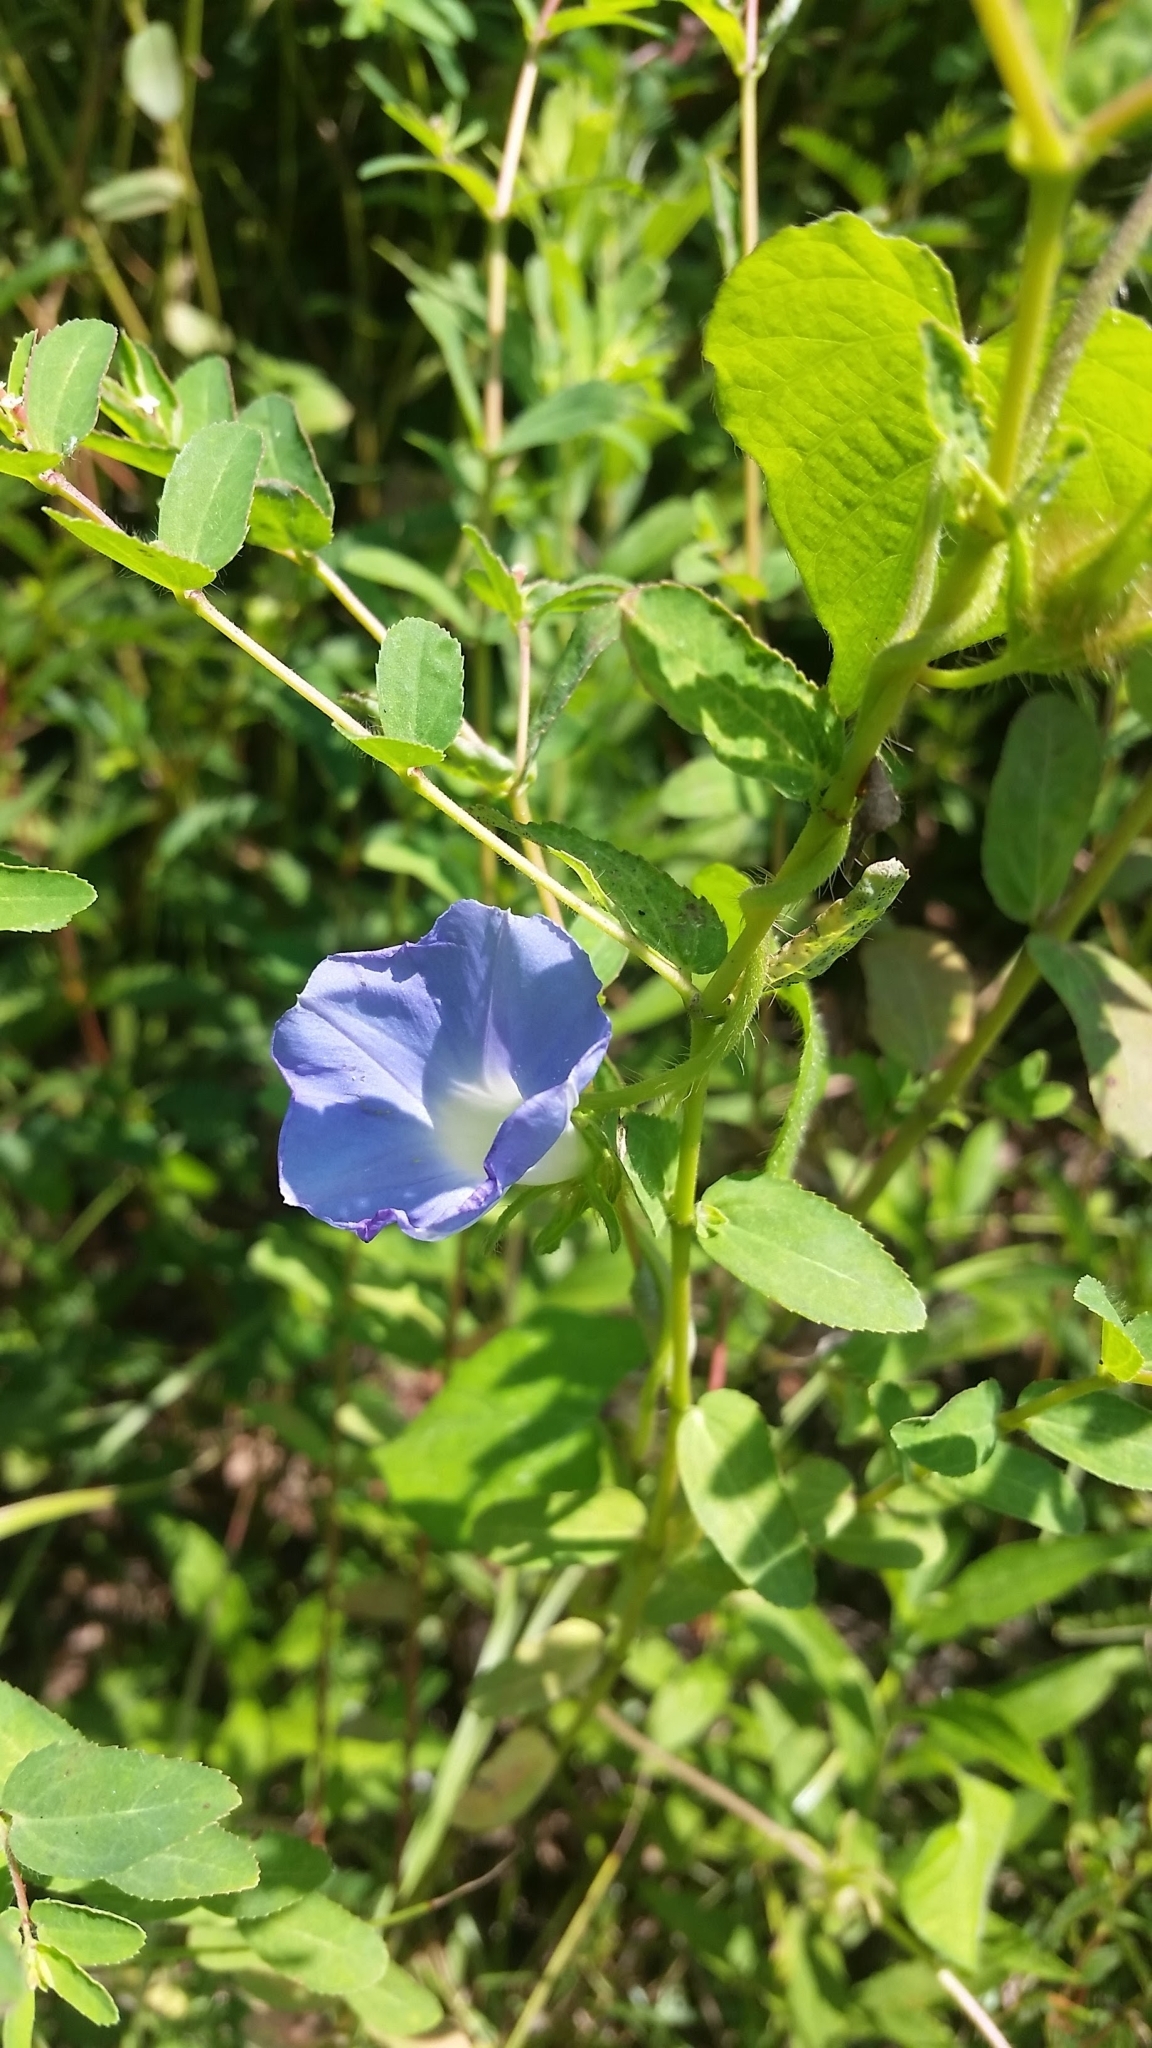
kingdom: Plantae
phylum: Tracheophyta
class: Magnoliopsida
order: Solanales
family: Convolvulaceae
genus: Ipomoea
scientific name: Ipomoea hederacea
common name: Ivy-leaved morning-glory
